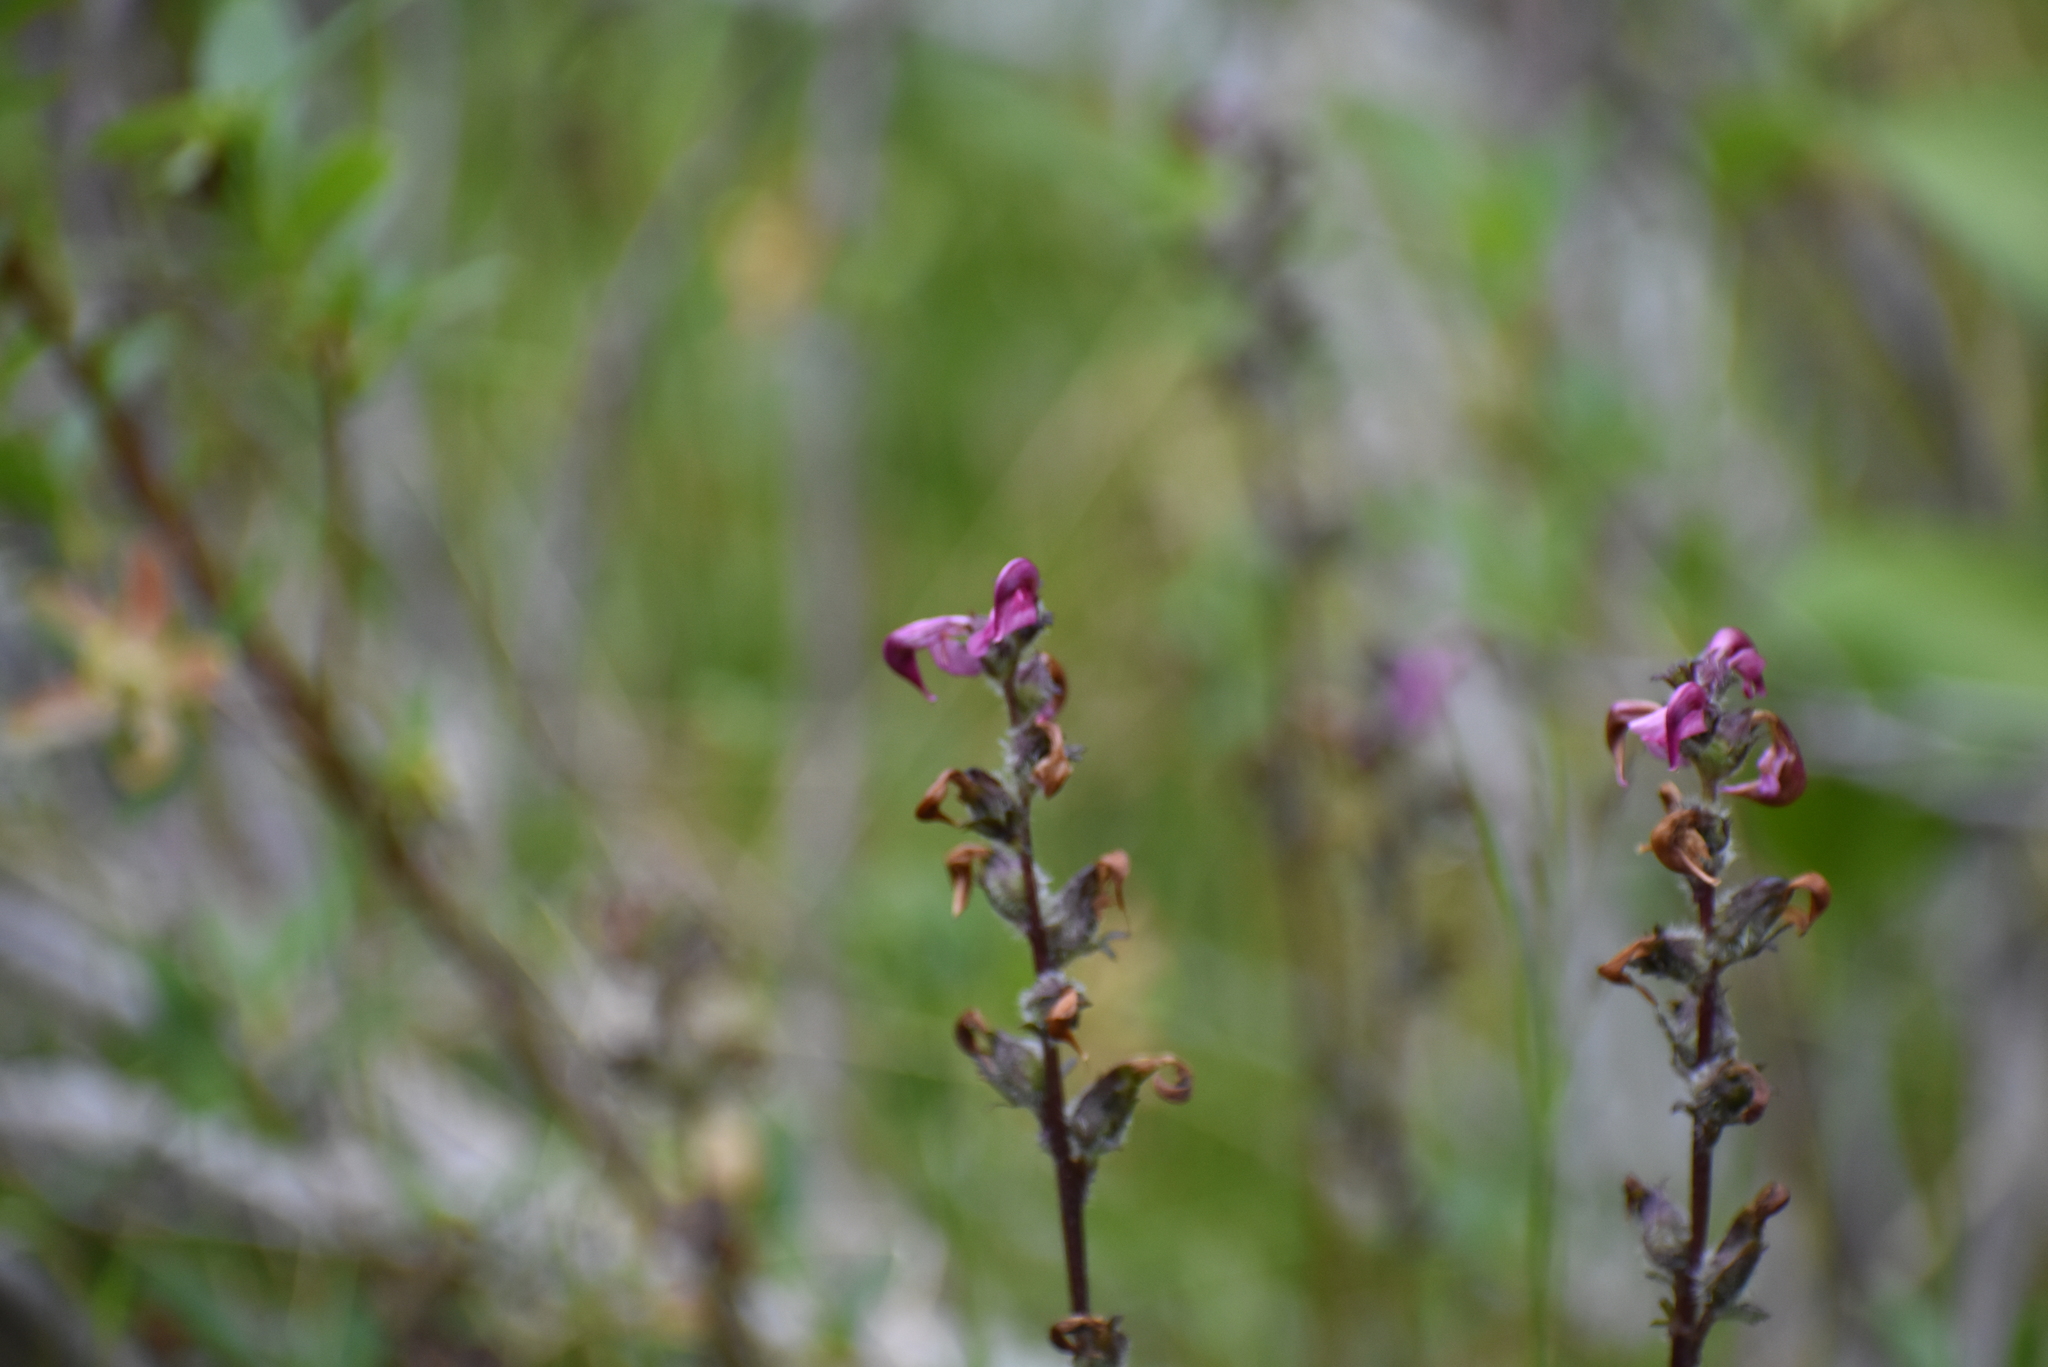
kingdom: Plantae
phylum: Tracheophyta
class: Magnoliopsida
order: Lamiales
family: Orobanchaceae
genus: Pedicularis
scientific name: Pedicularis ornithorhynchos
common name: Bird's-beak lousewort
